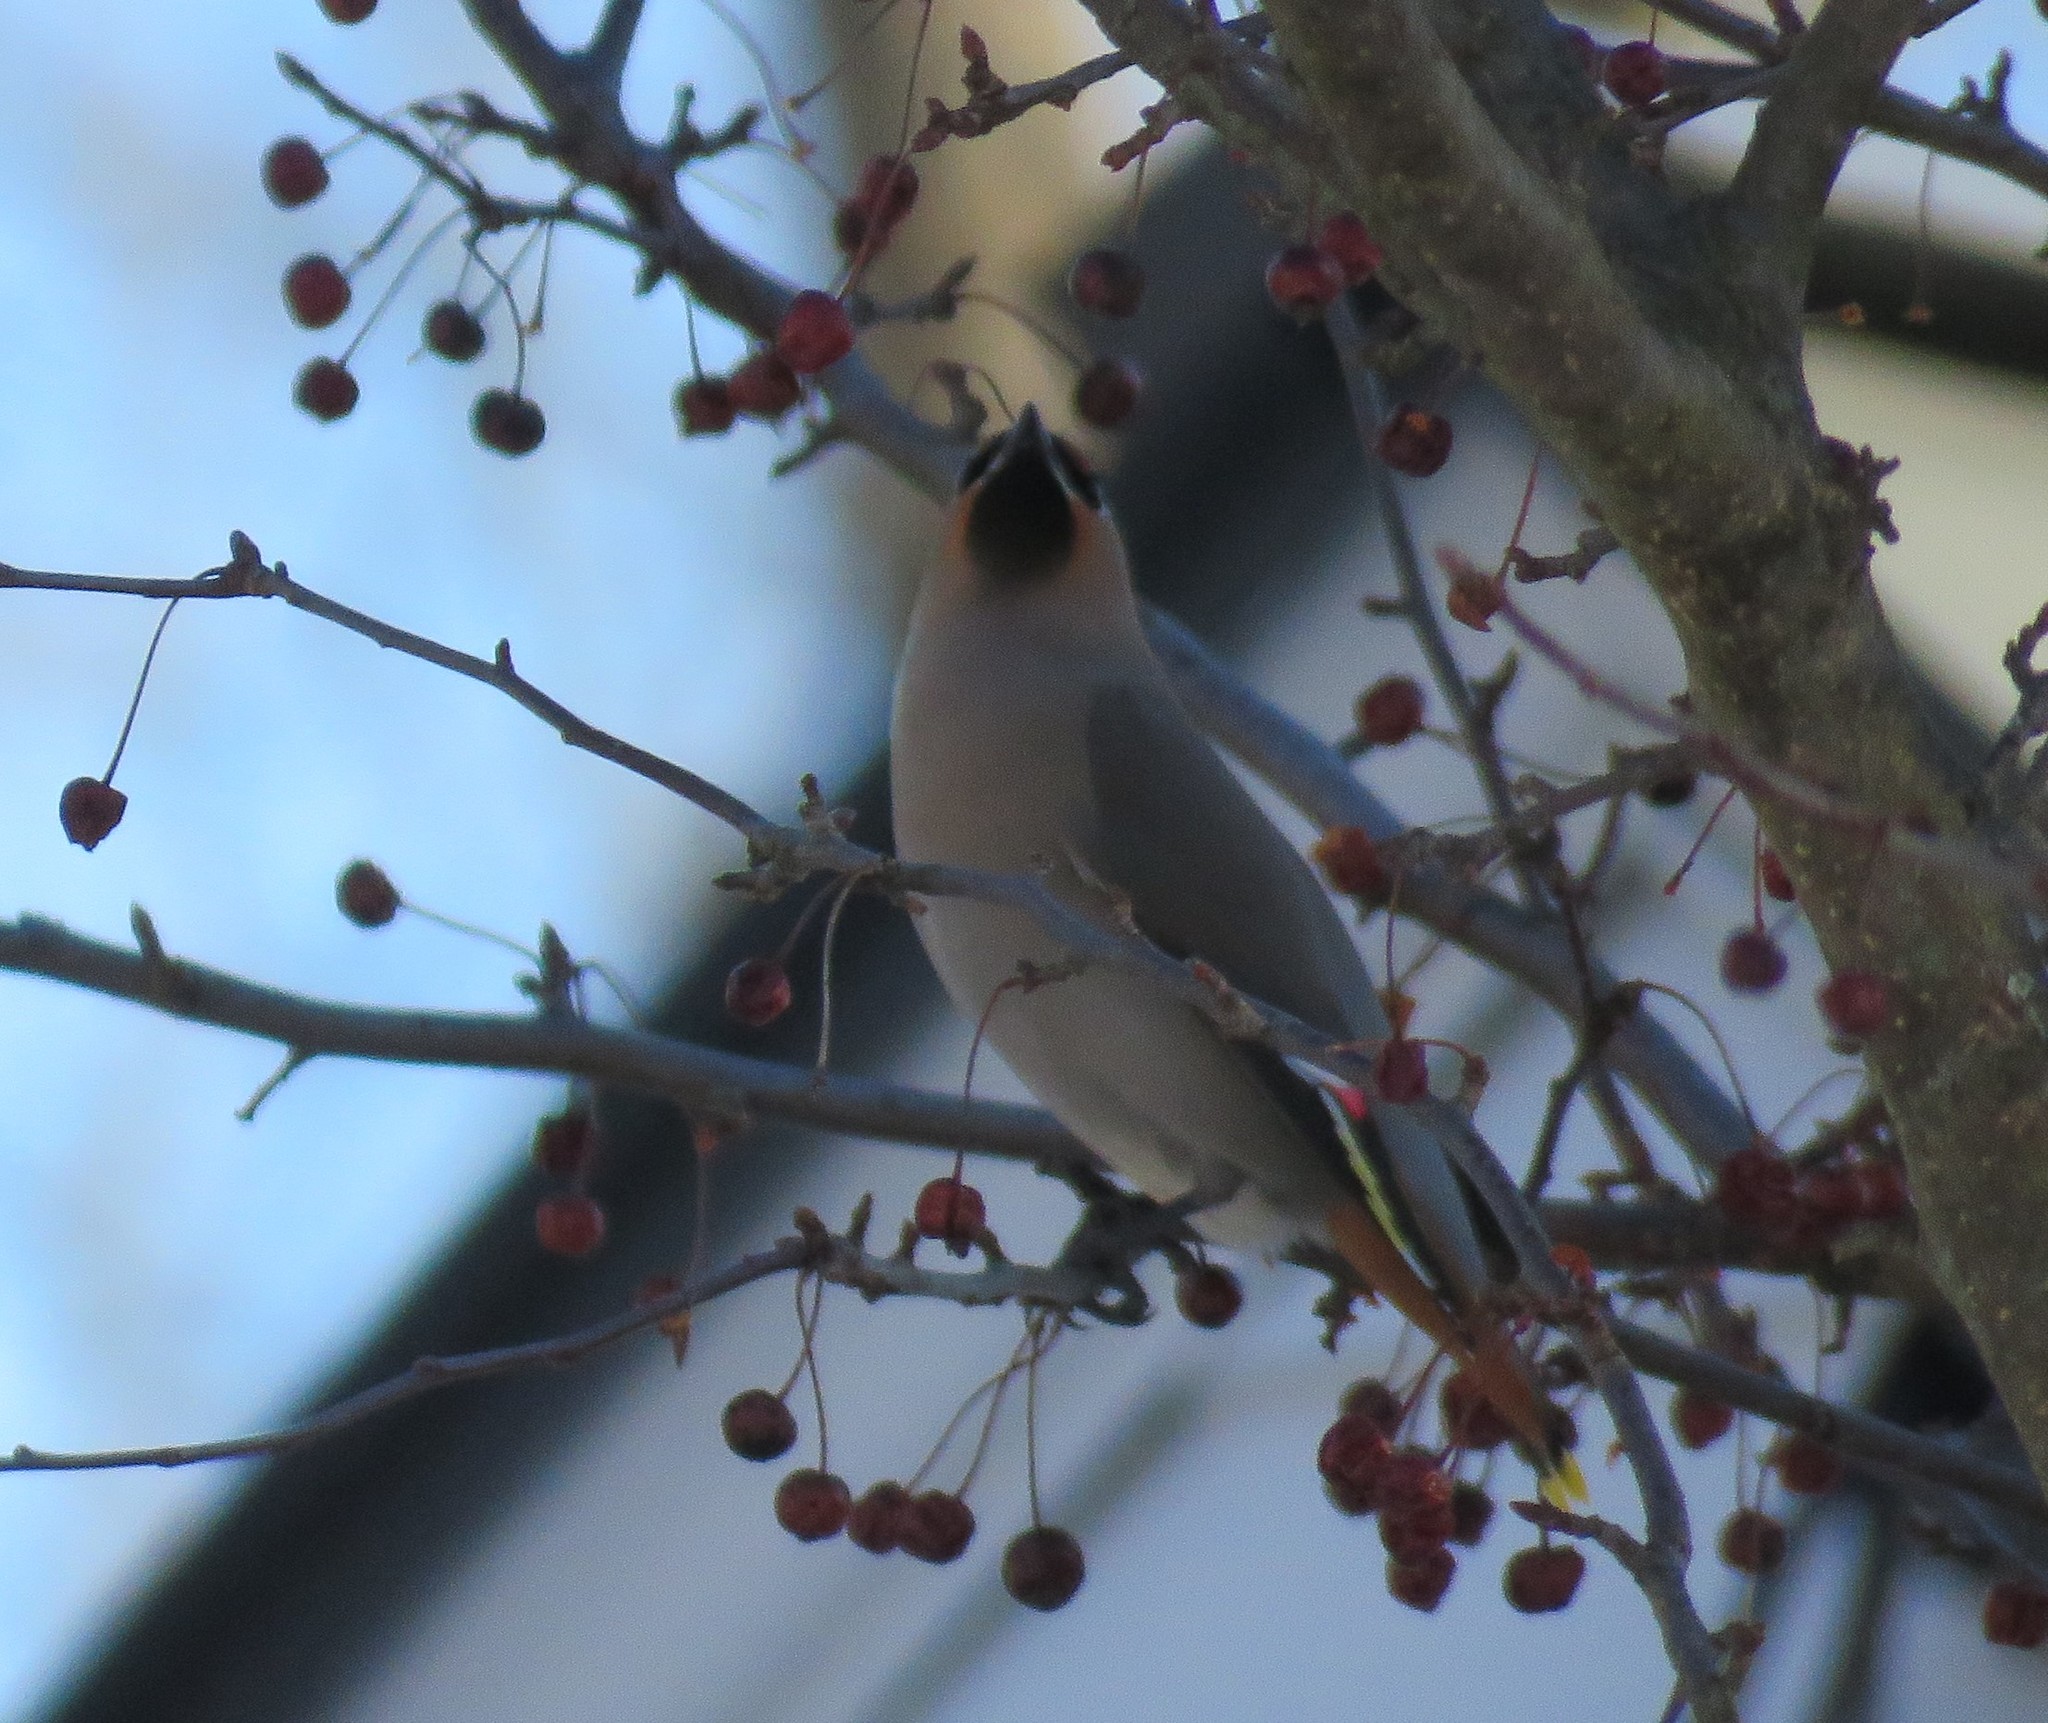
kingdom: Animalia
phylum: Chordata
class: Aves
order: Passeriformes
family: Bombycillidae
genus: Bombycilla
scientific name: Bombycilla garrulus
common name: Bohemian waxwing
